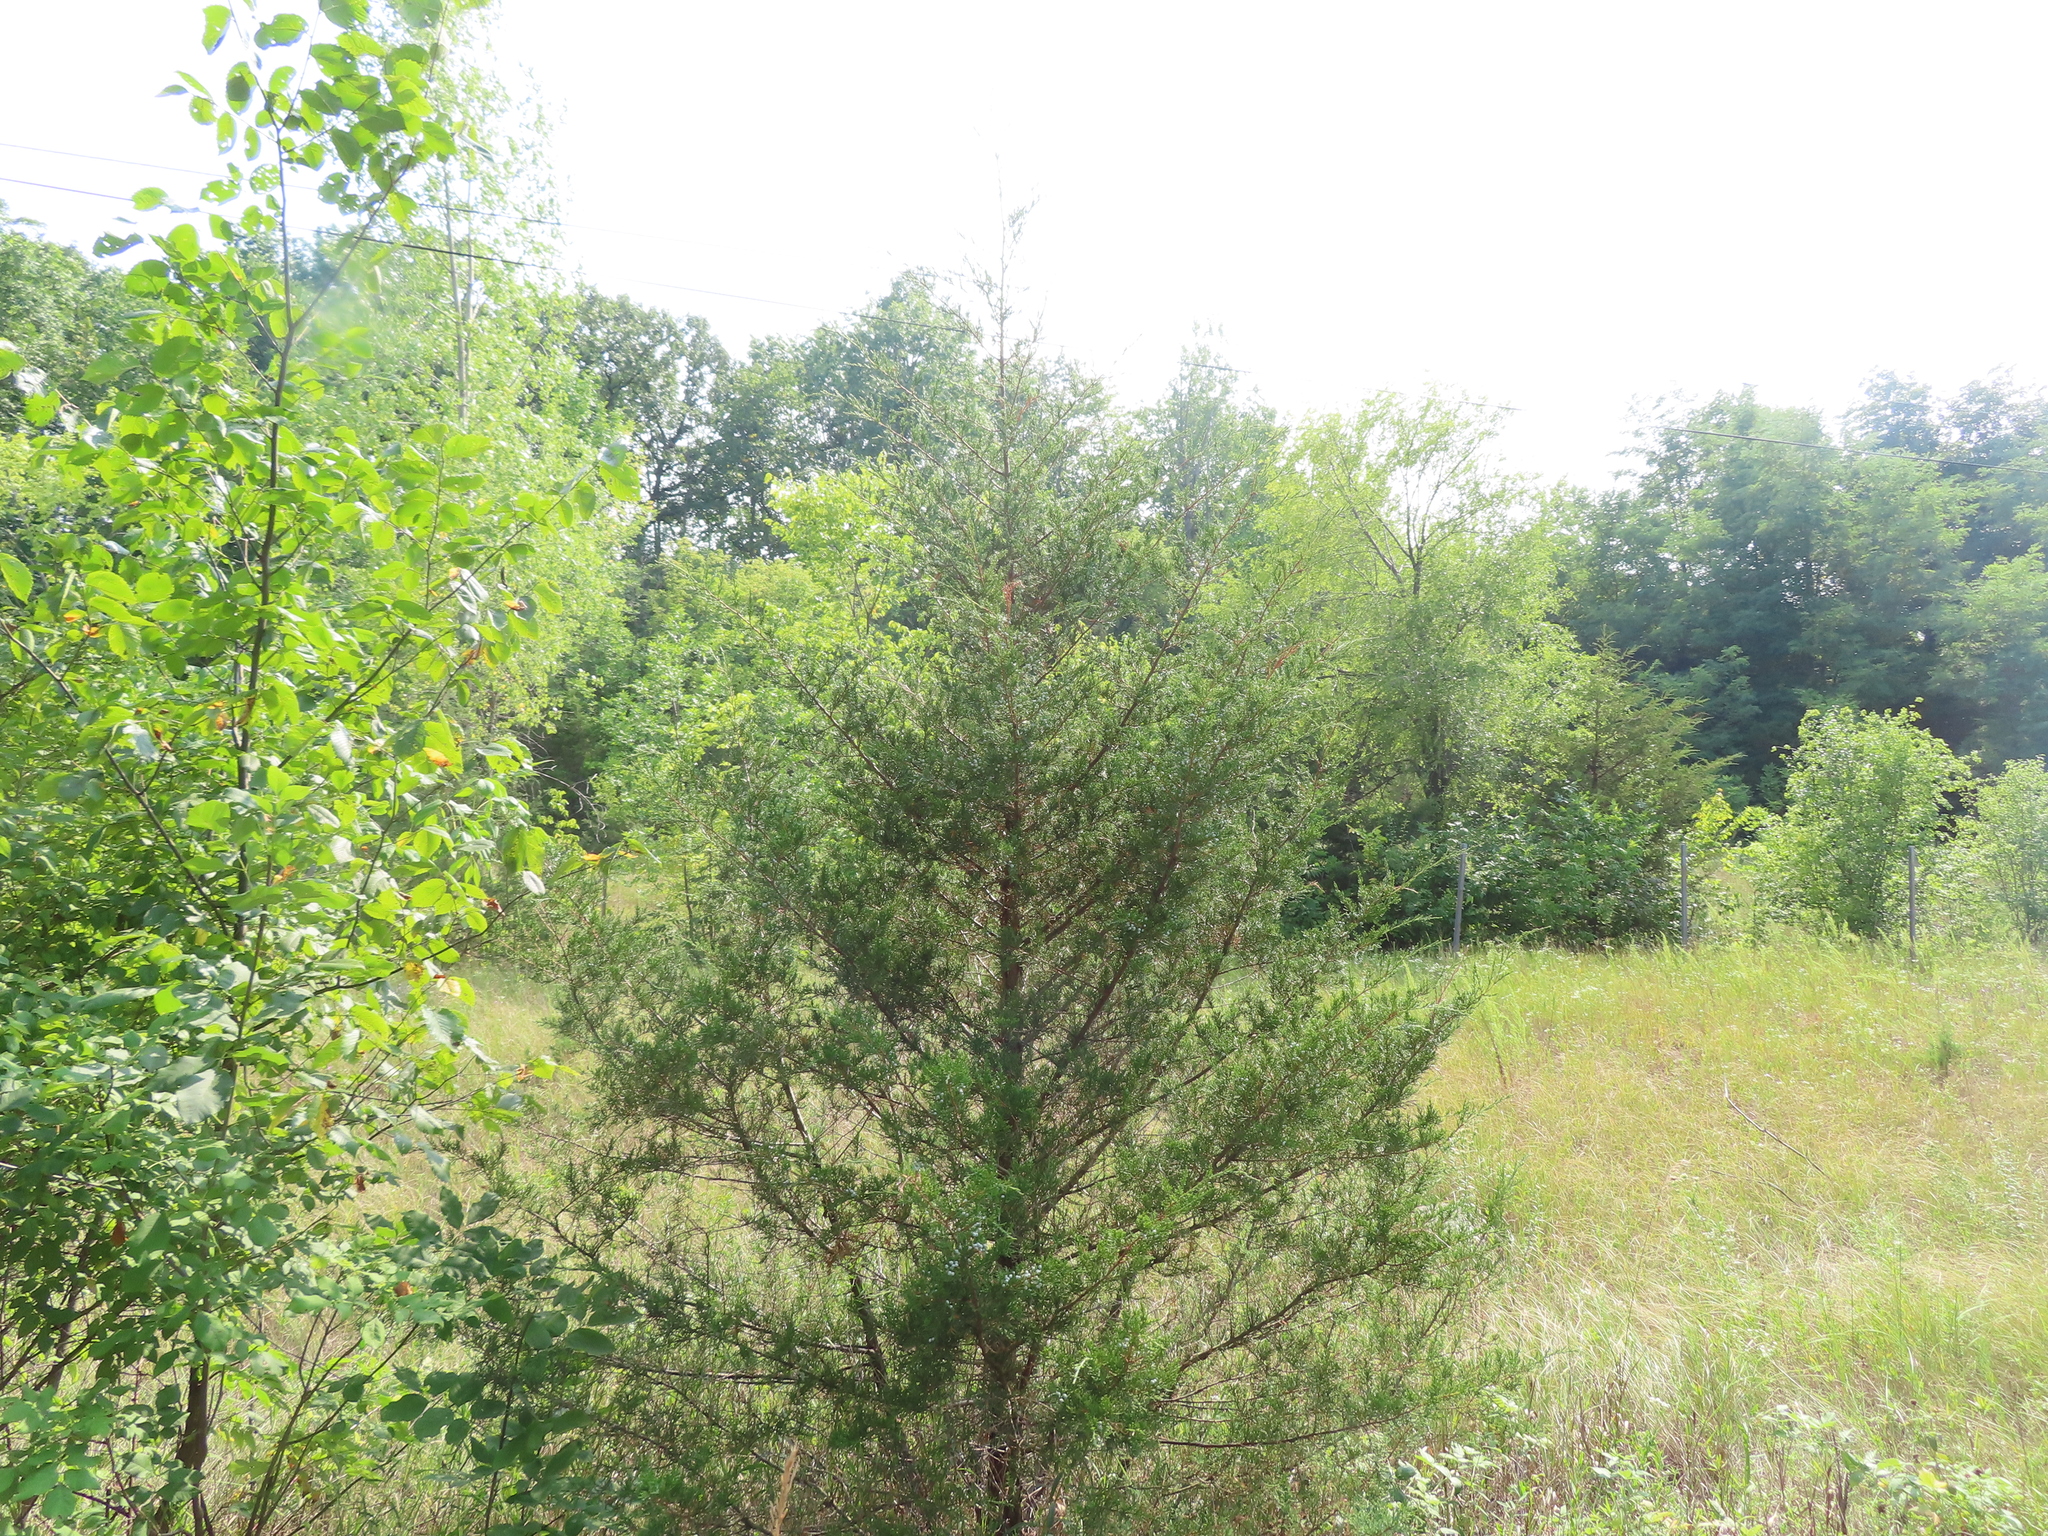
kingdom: Plantae
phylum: Tracheophyta
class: Pinopsida
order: Pinales
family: Cupressaceae
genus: Juniperus
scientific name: Juniperus virginiana
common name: Red juniper
